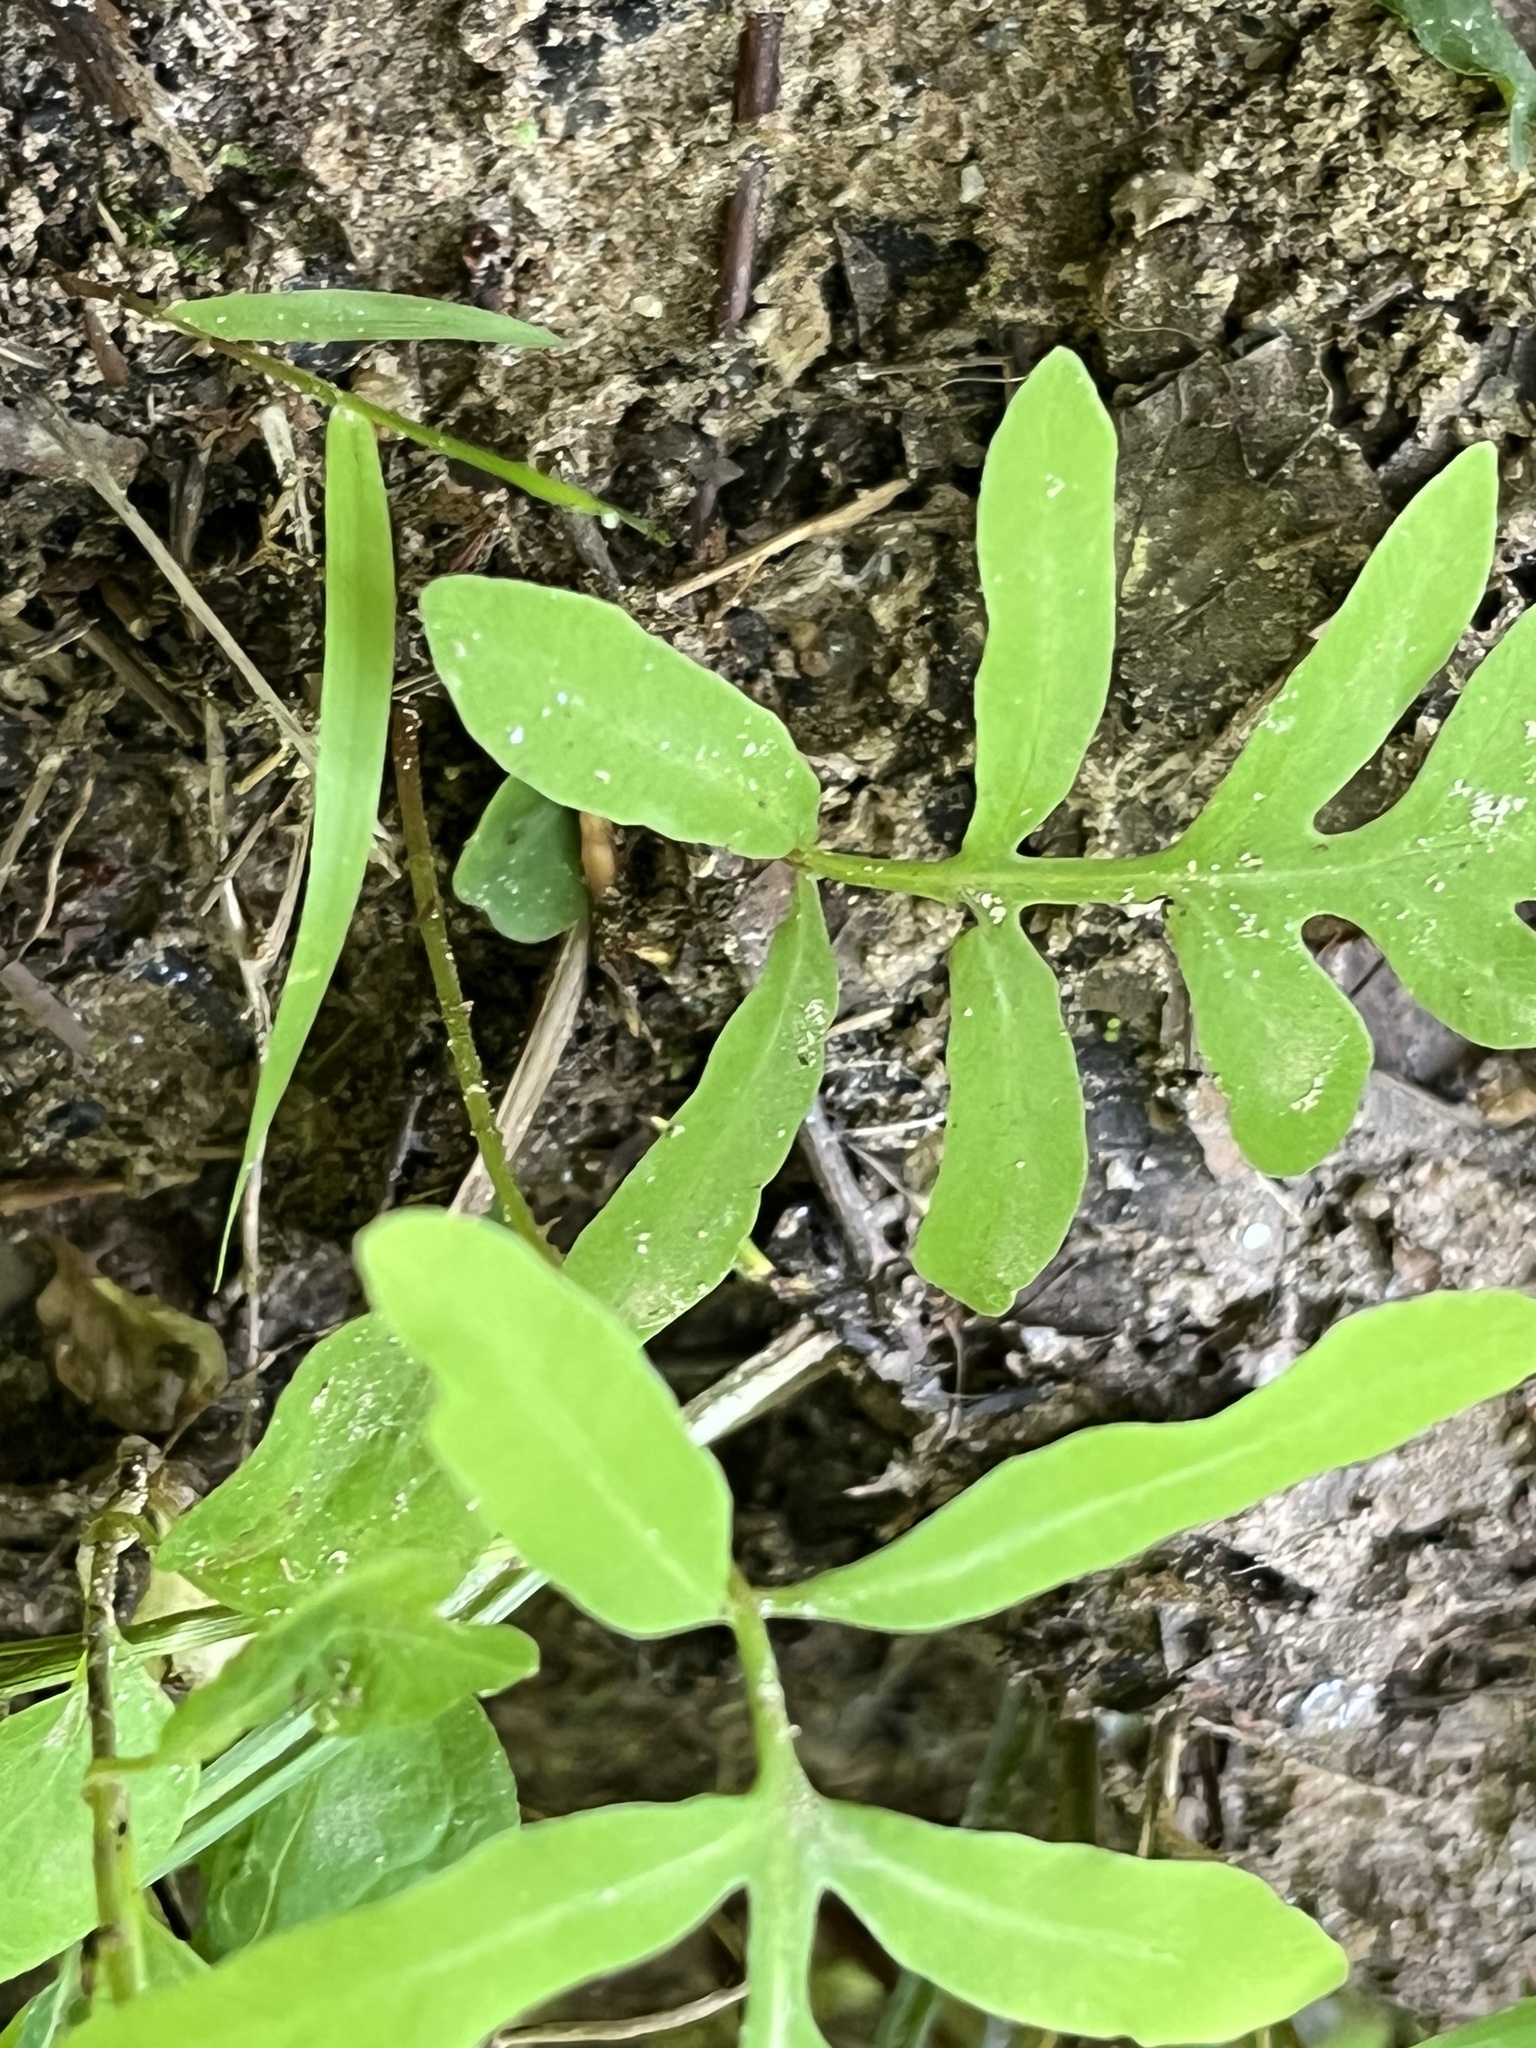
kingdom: Plantae
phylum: Tracheophyta
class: Polypodiopsida
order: Polypodiales
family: Onocleaceae
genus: Onoclea
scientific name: Onoclea sensibilis
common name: Sensitive fern
